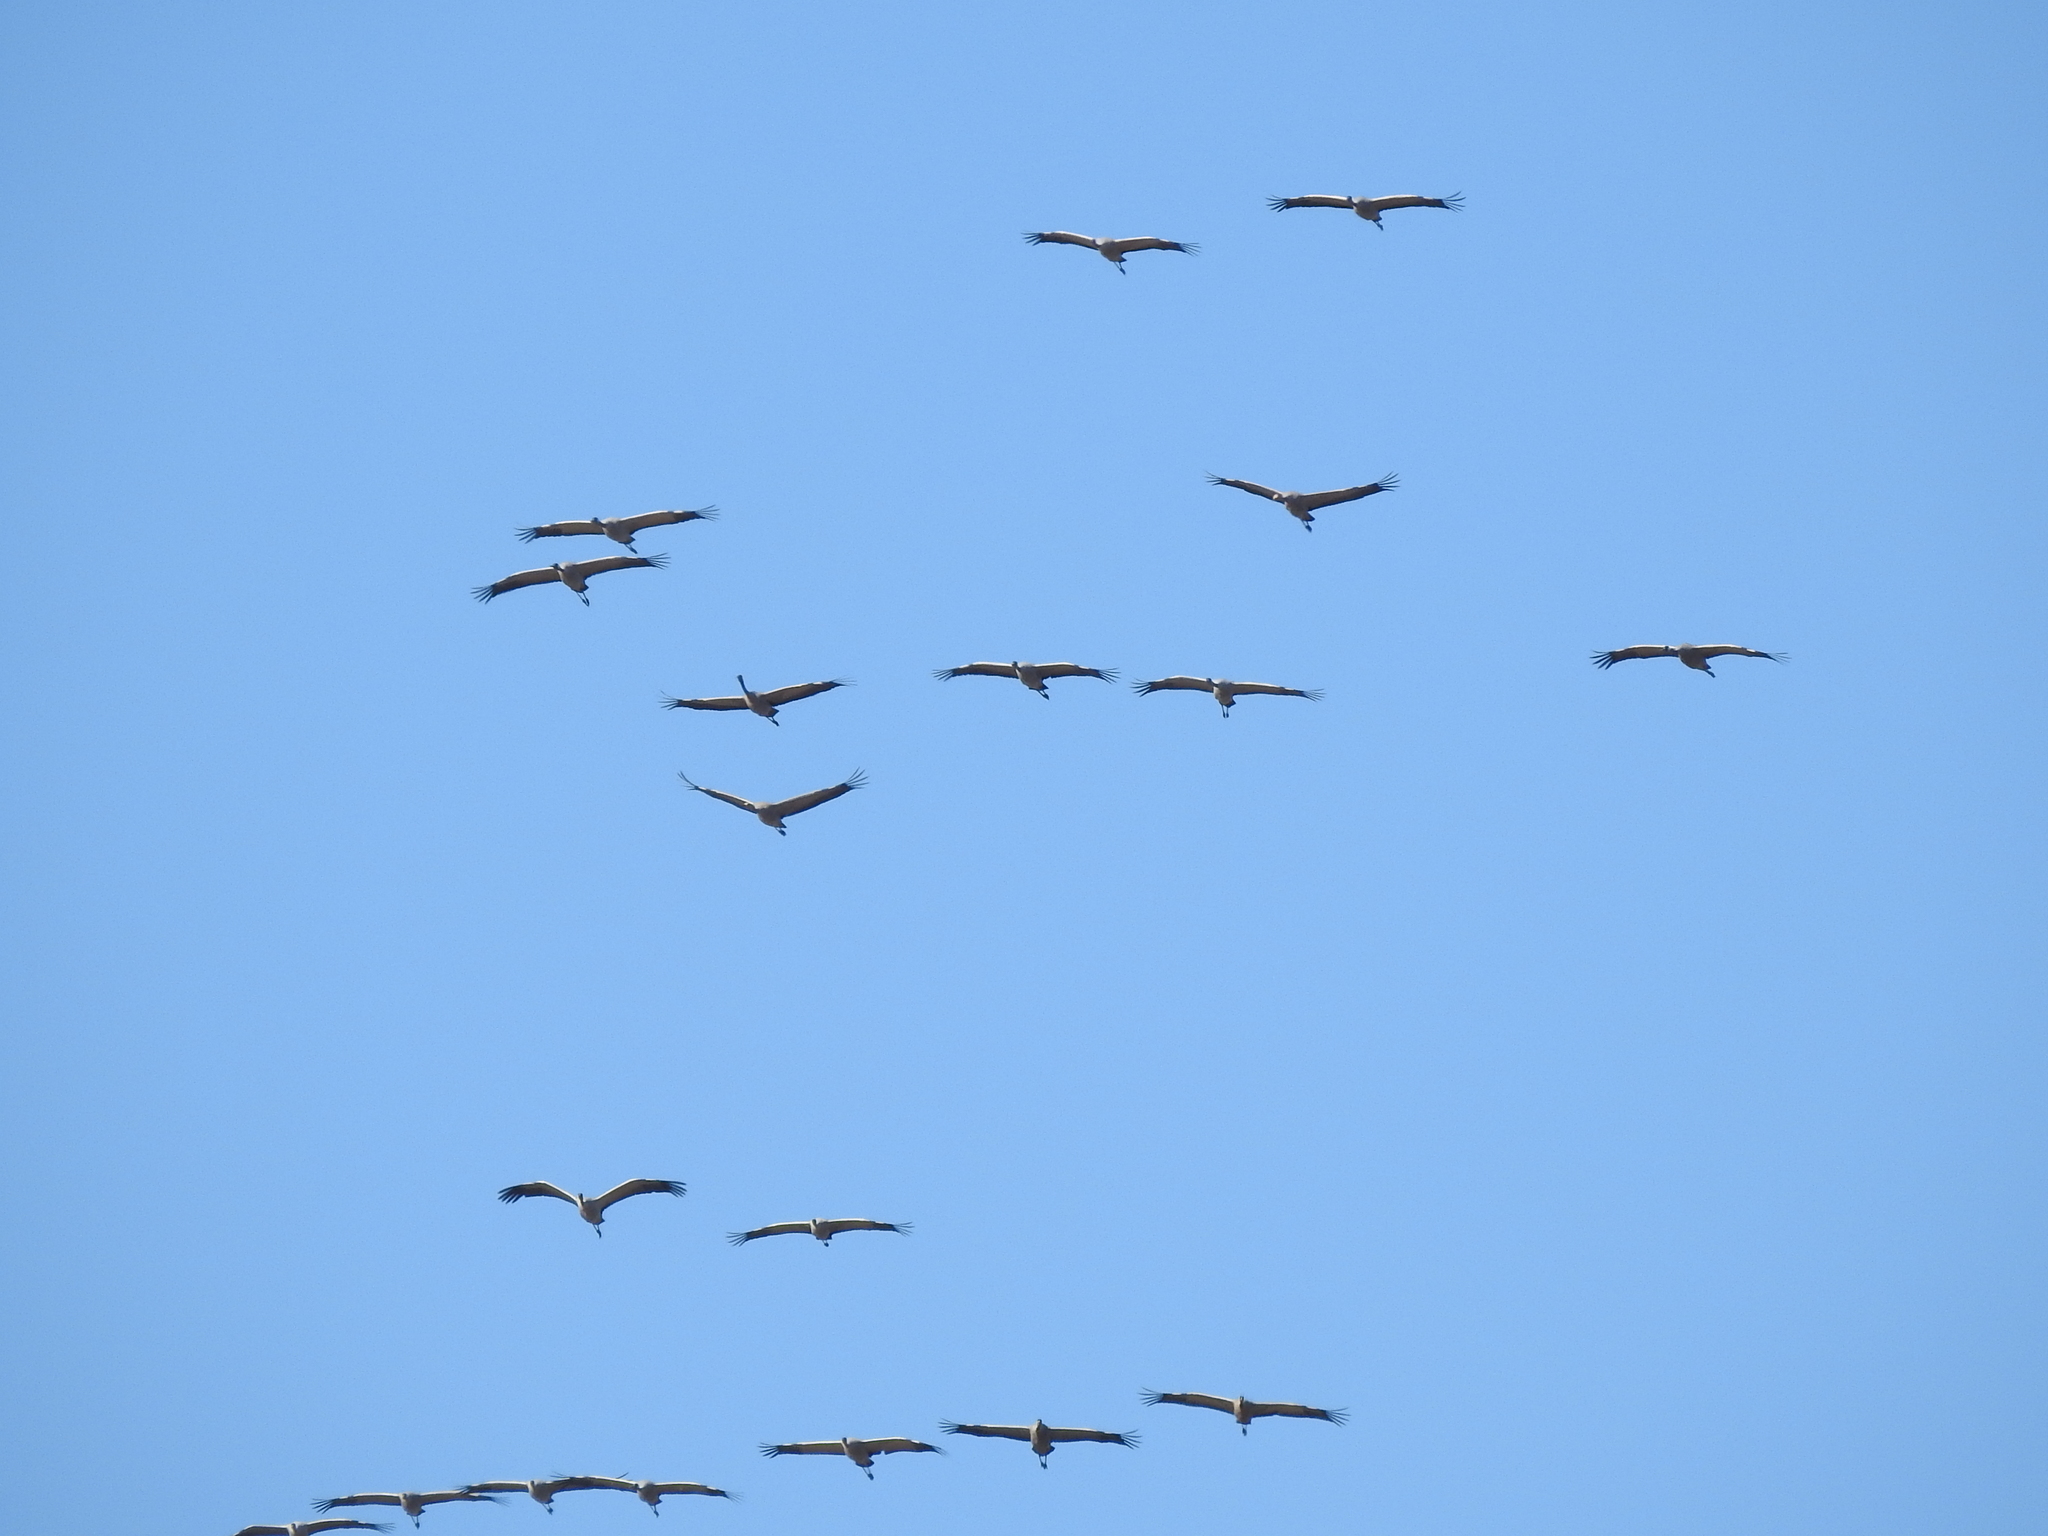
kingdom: Animalia
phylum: Chordata
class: Aves
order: Gruiformes
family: Gruidae
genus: Grus
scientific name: Grus grus
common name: Common crane
